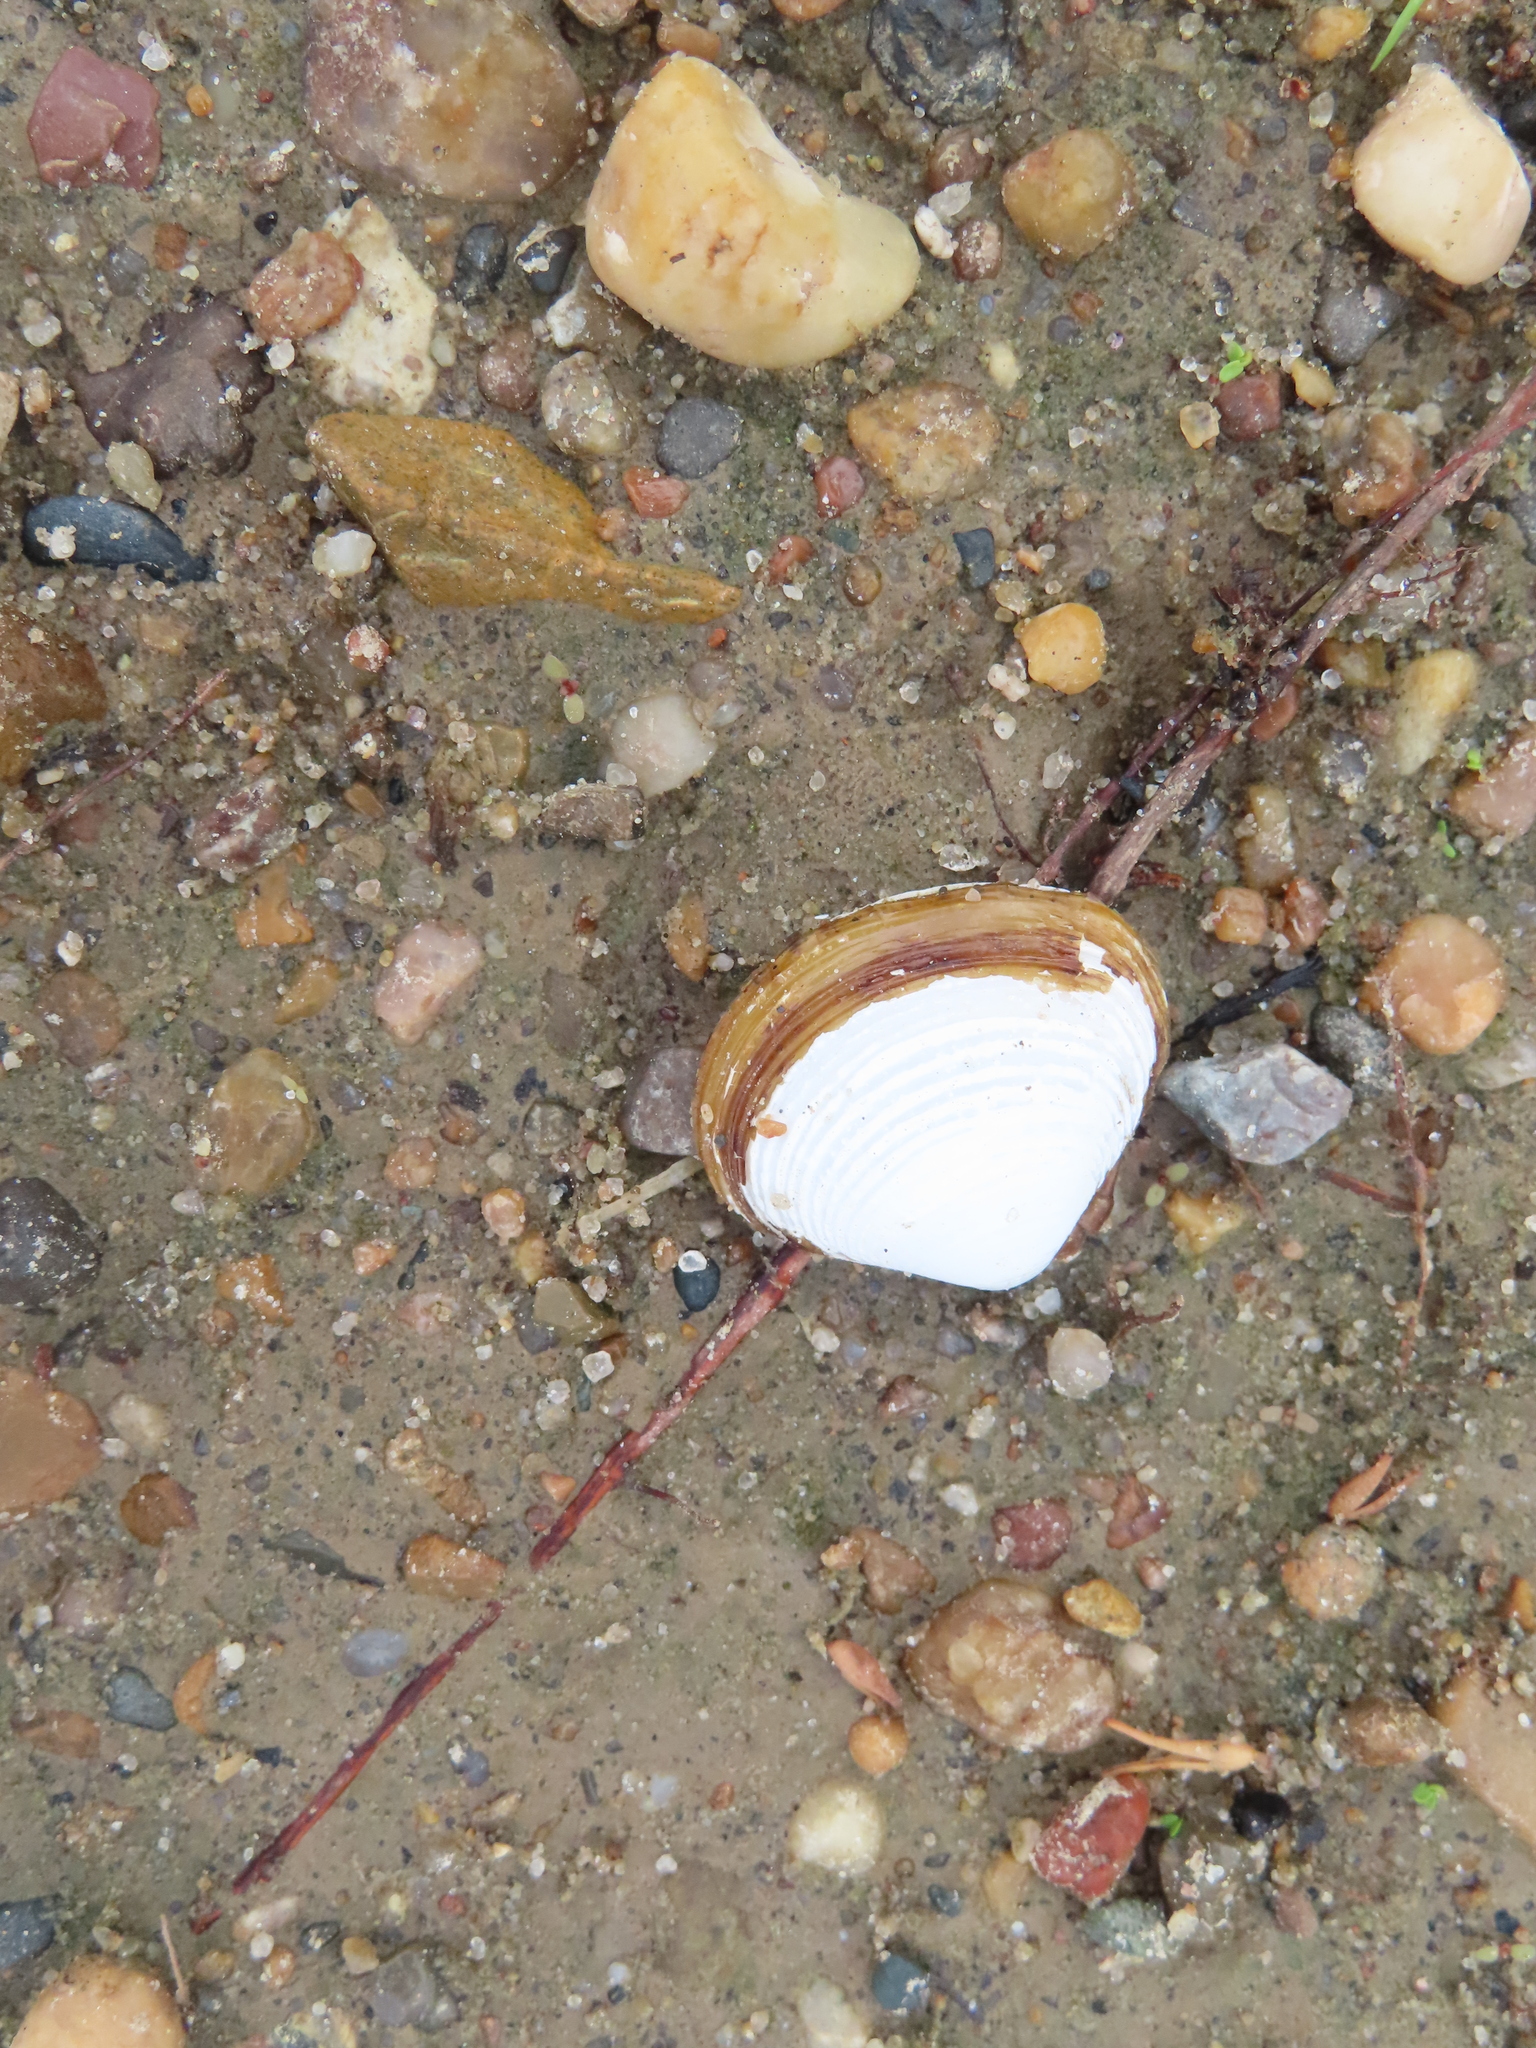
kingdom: Animalia
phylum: Mollusca
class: Bivalvia
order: Venerida
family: Cyrenidae
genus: Corbicula
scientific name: Corbicula fluminea
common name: Asian clam
